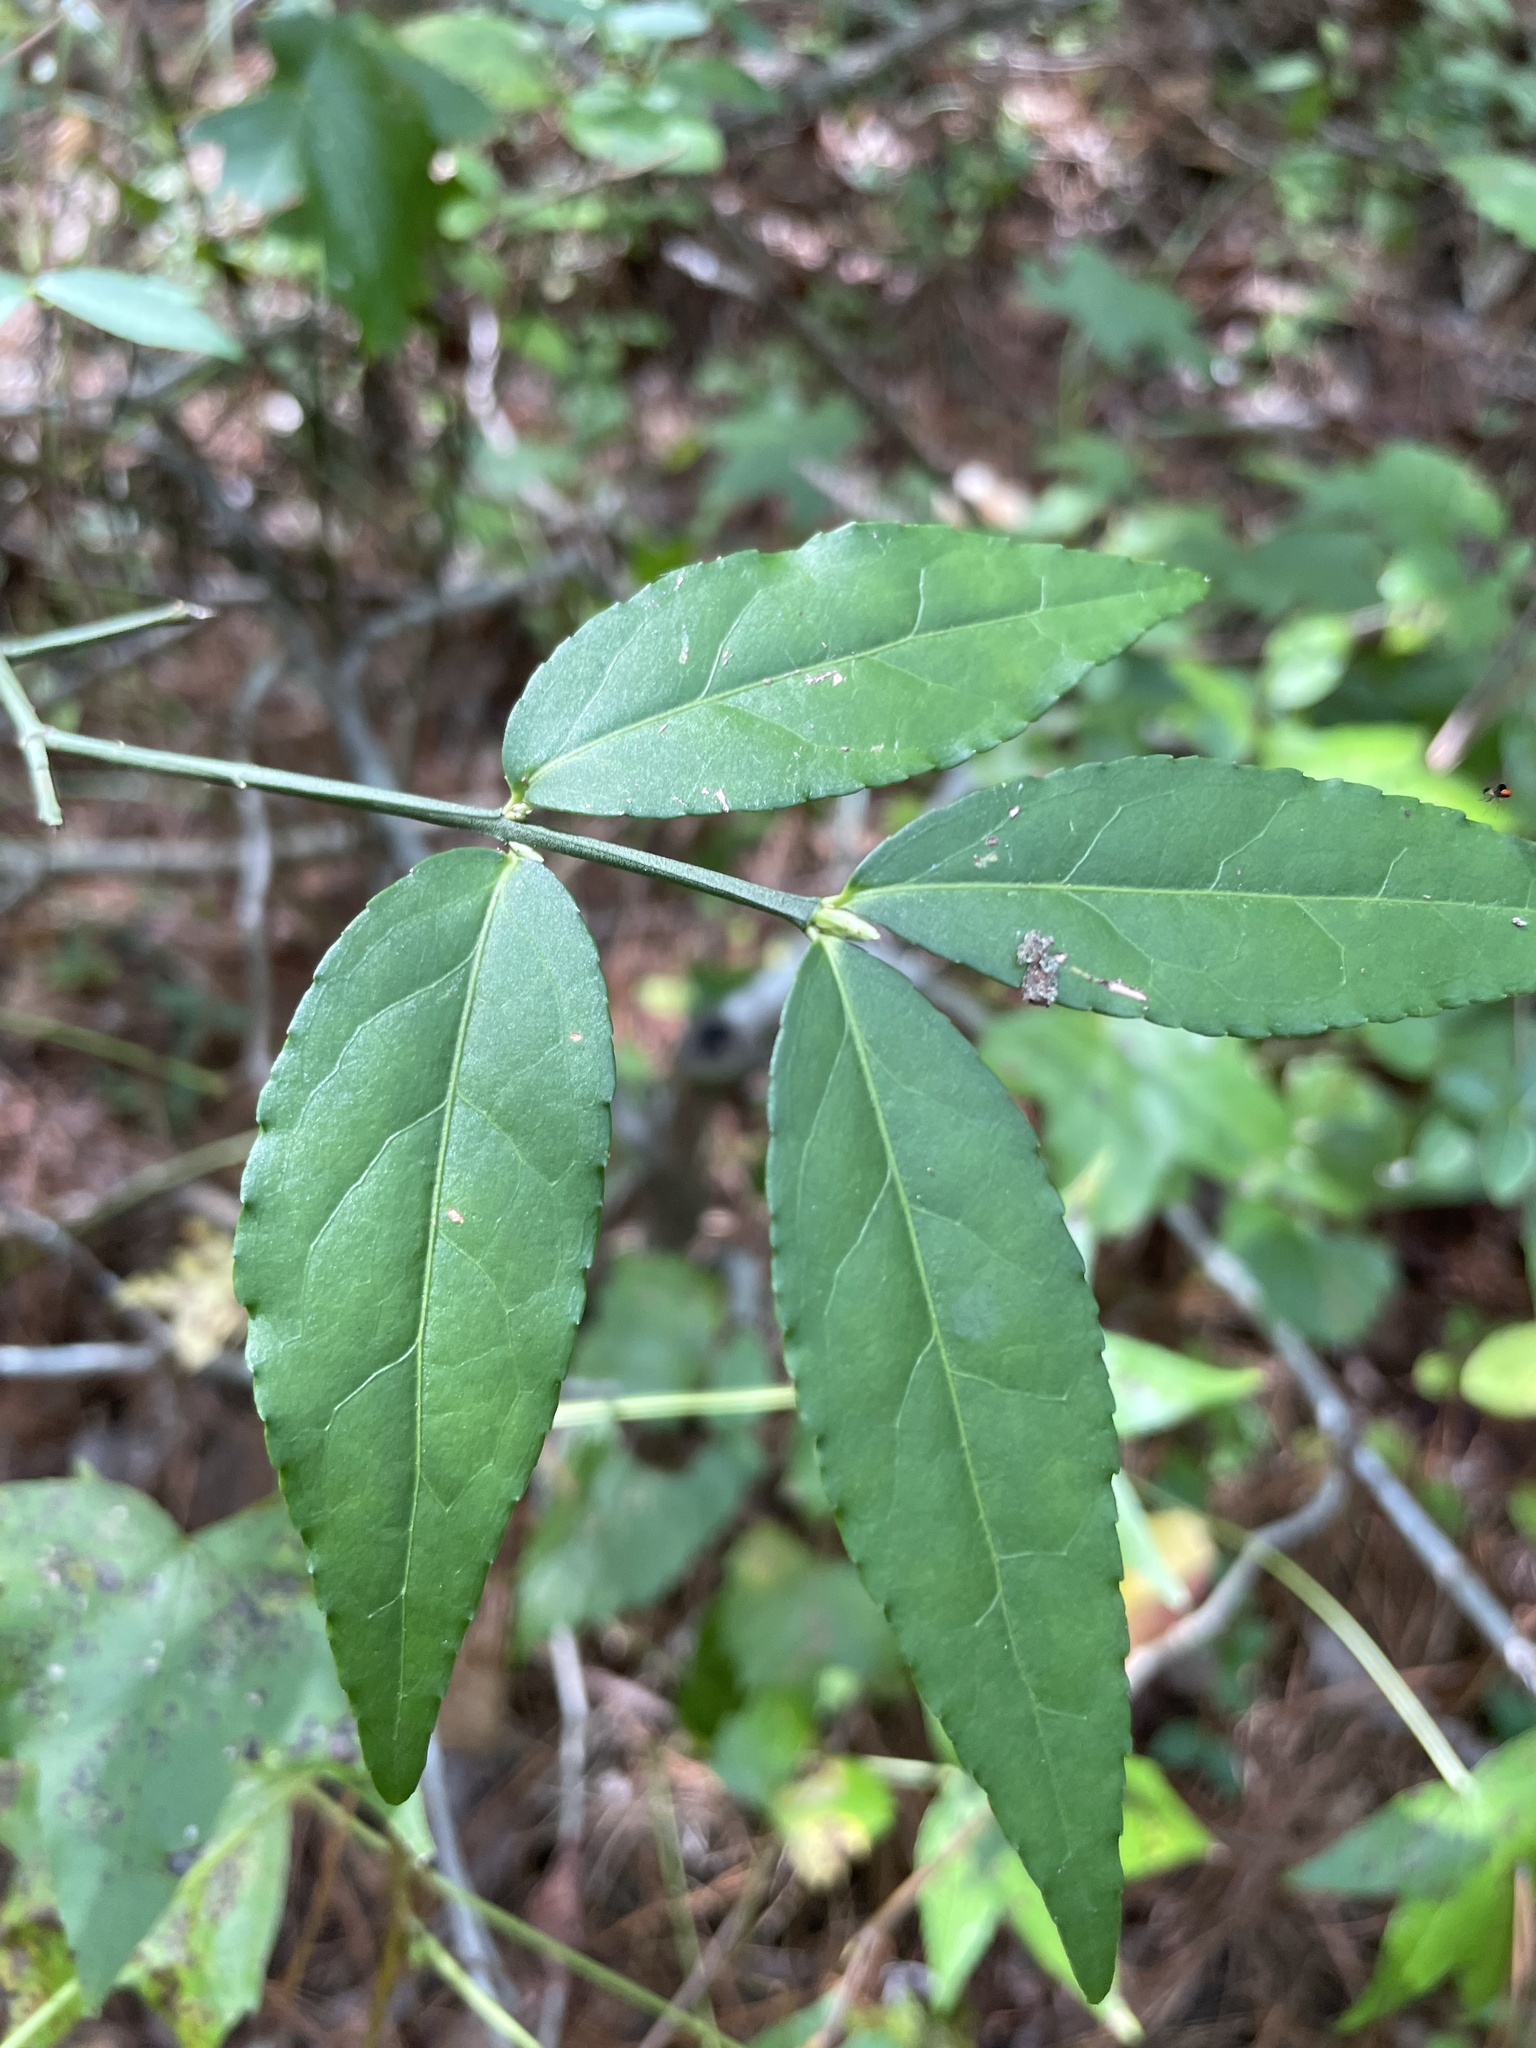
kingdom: Plantae
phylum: Tracheophyta
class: Magnoliopsida
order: Celastrales
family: Celastraceae
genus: Euonymus
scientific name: Euonymus americanus
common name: Bursting-heart
